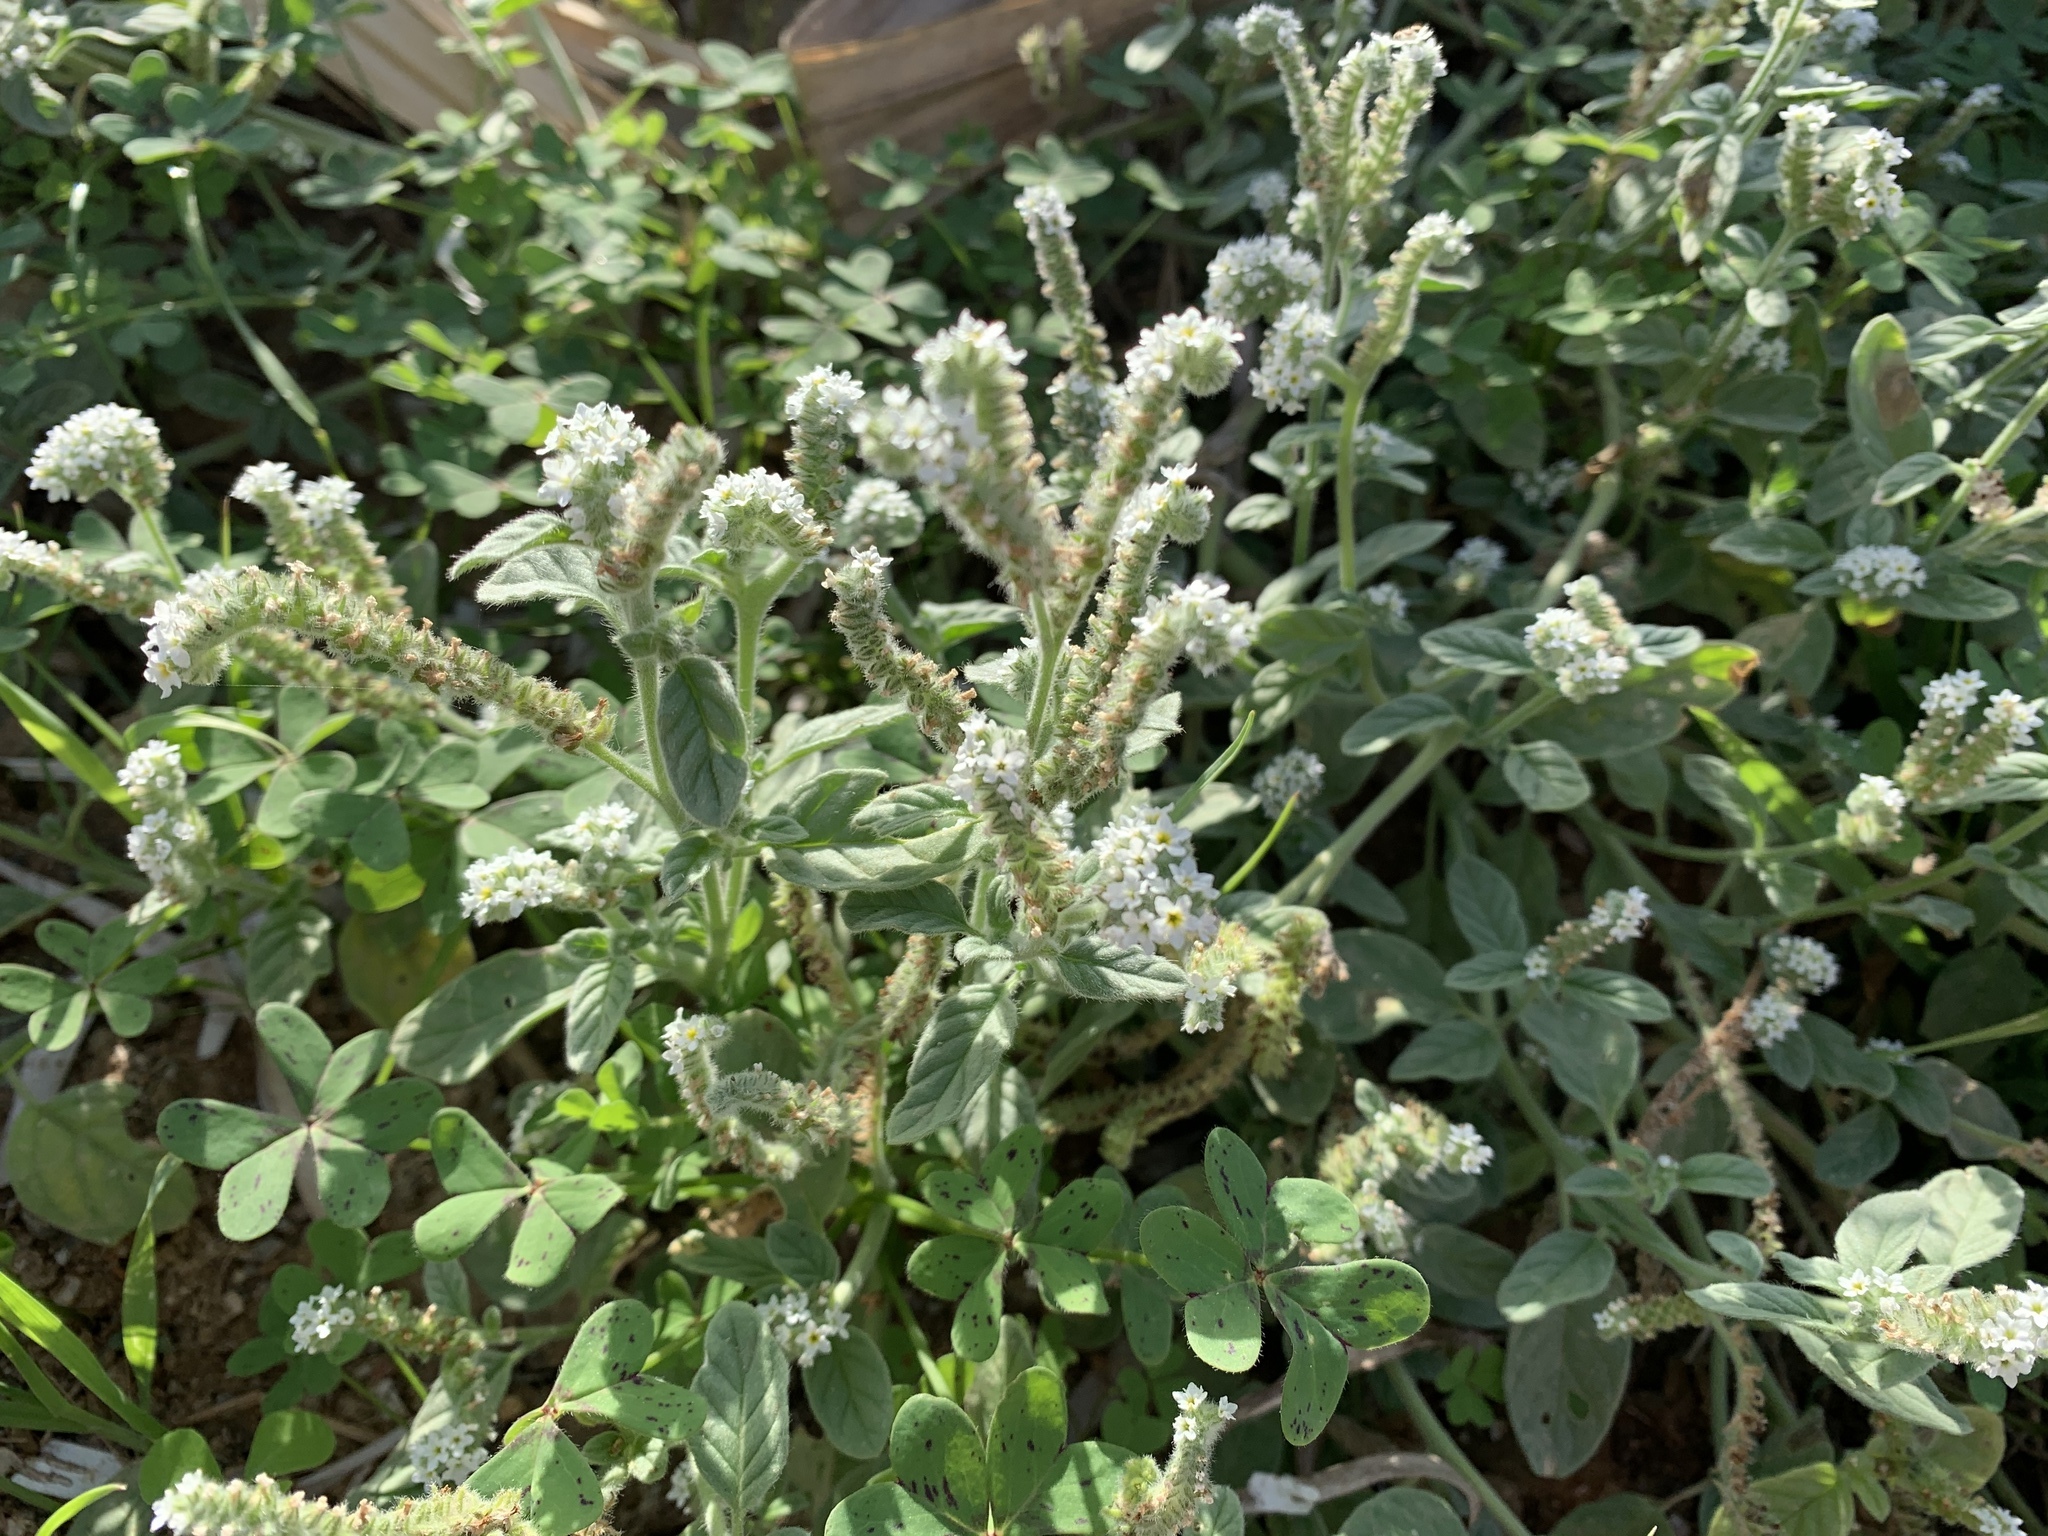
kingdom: Plantae
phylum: Tracheophyta
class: Magnoliopsida
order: Boraginales
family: Heliotropiaceae
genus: Heliotropium
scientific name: Heliotropium europaeum
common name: European heliotrope
